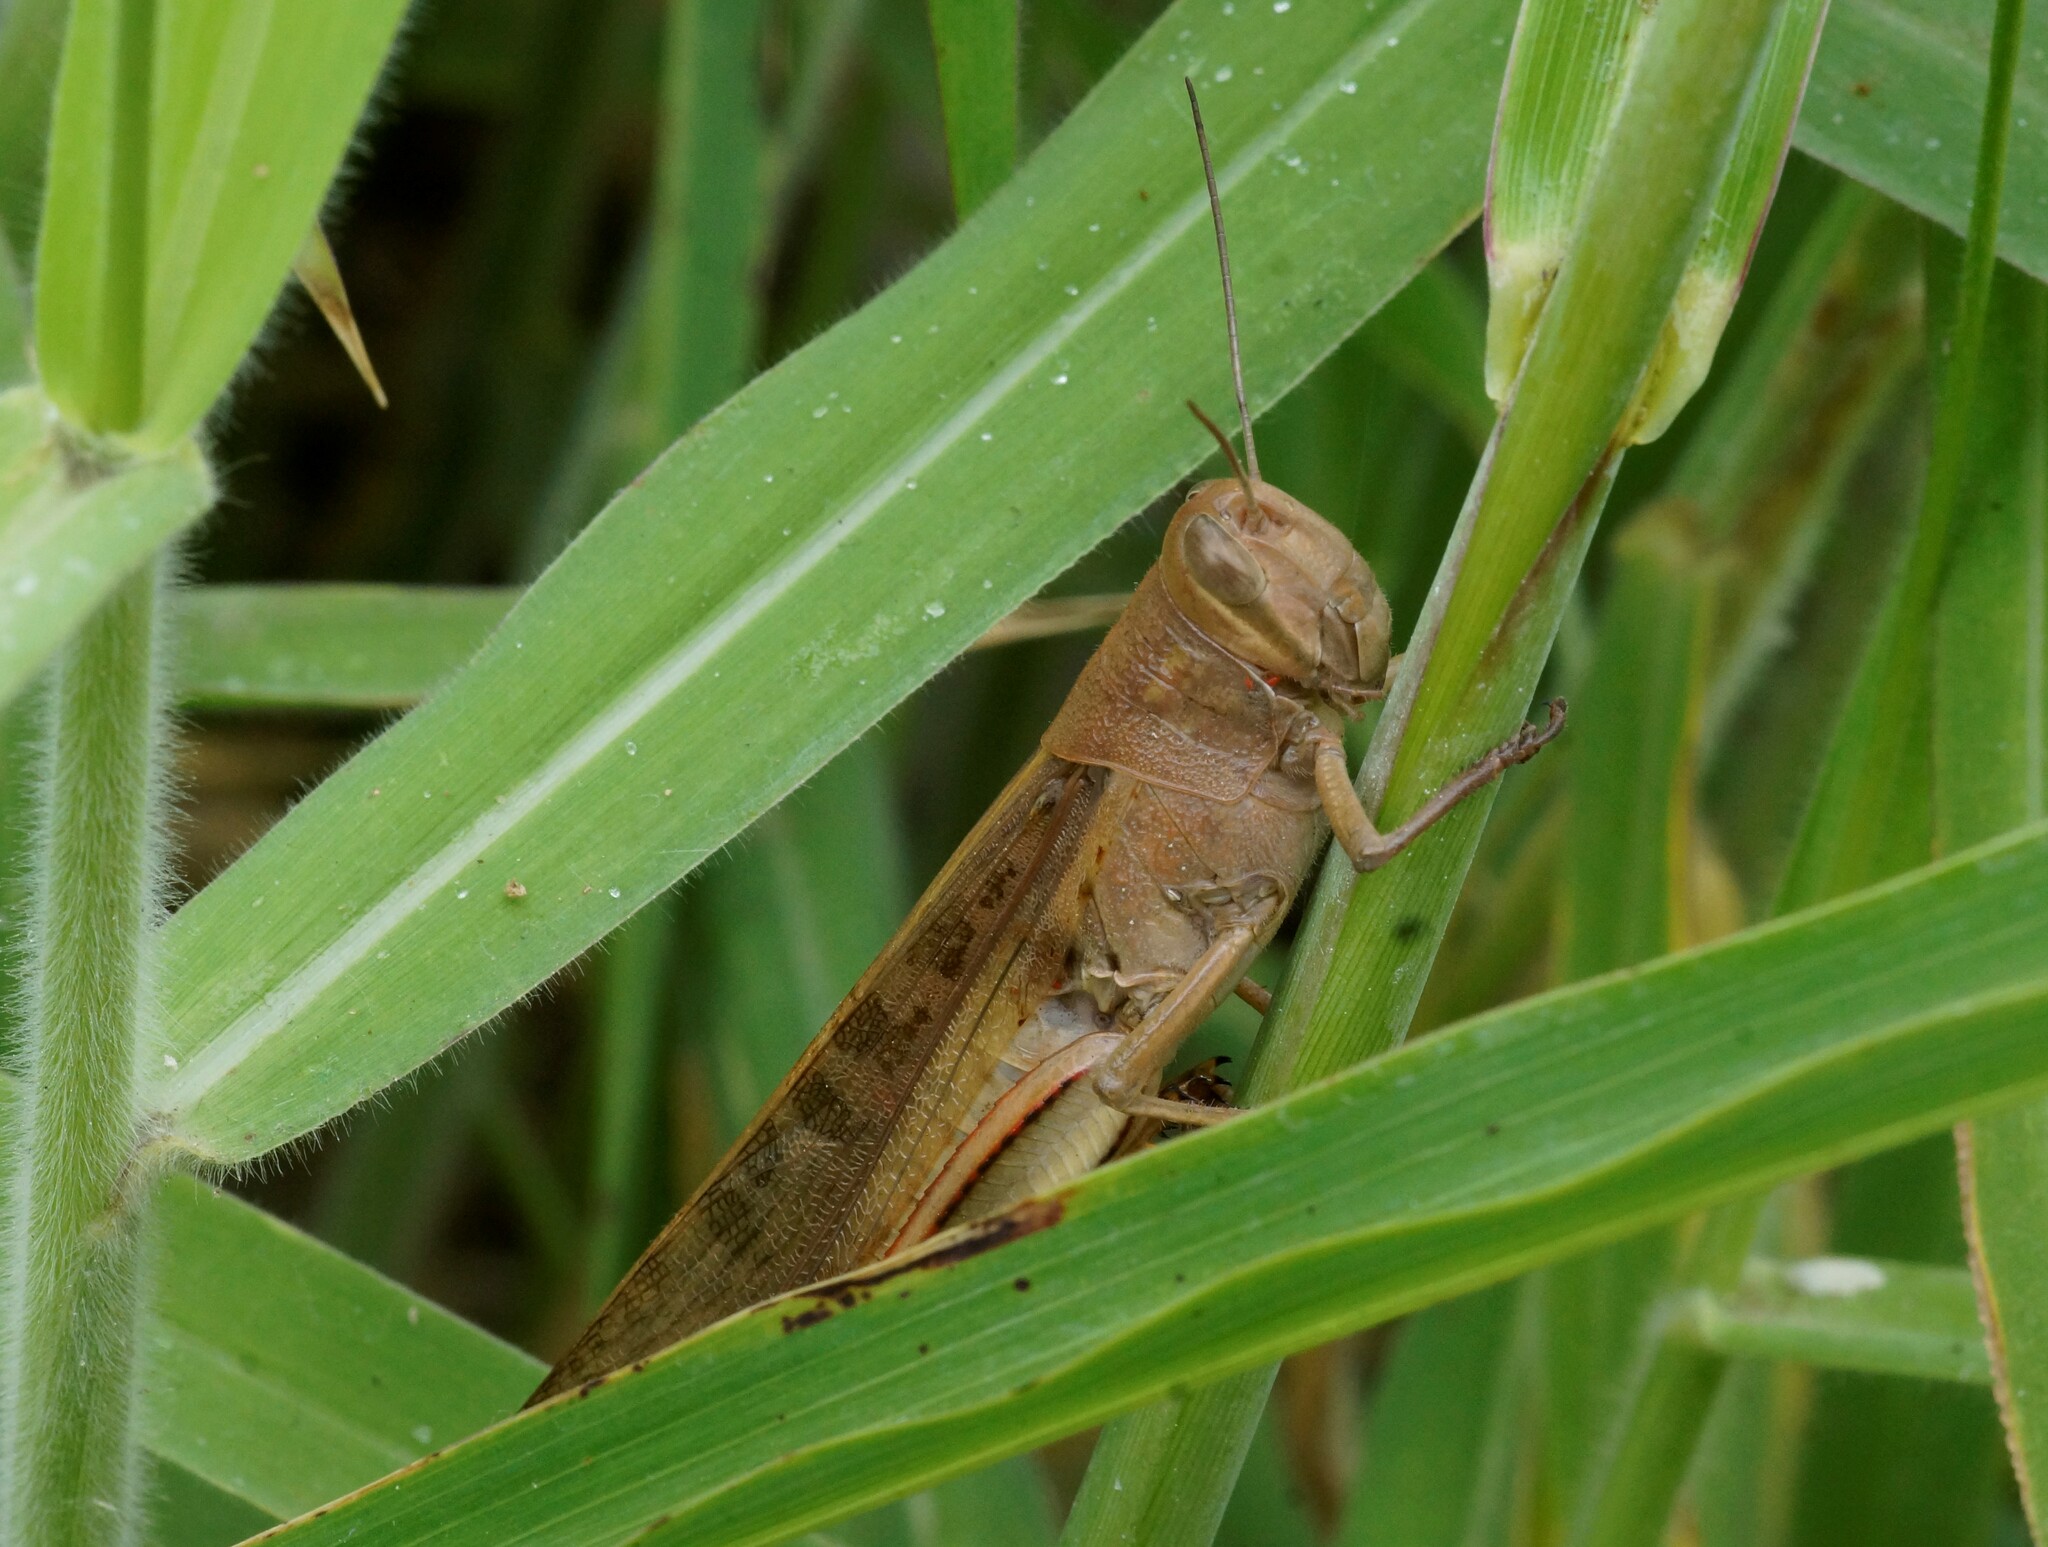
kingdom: Animalia
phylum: Arthropoda
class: Insecta
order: Orthoptera
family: Acrididae
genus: Austracris
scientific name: Austracris proxima
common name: Confusing spur-throated locust
